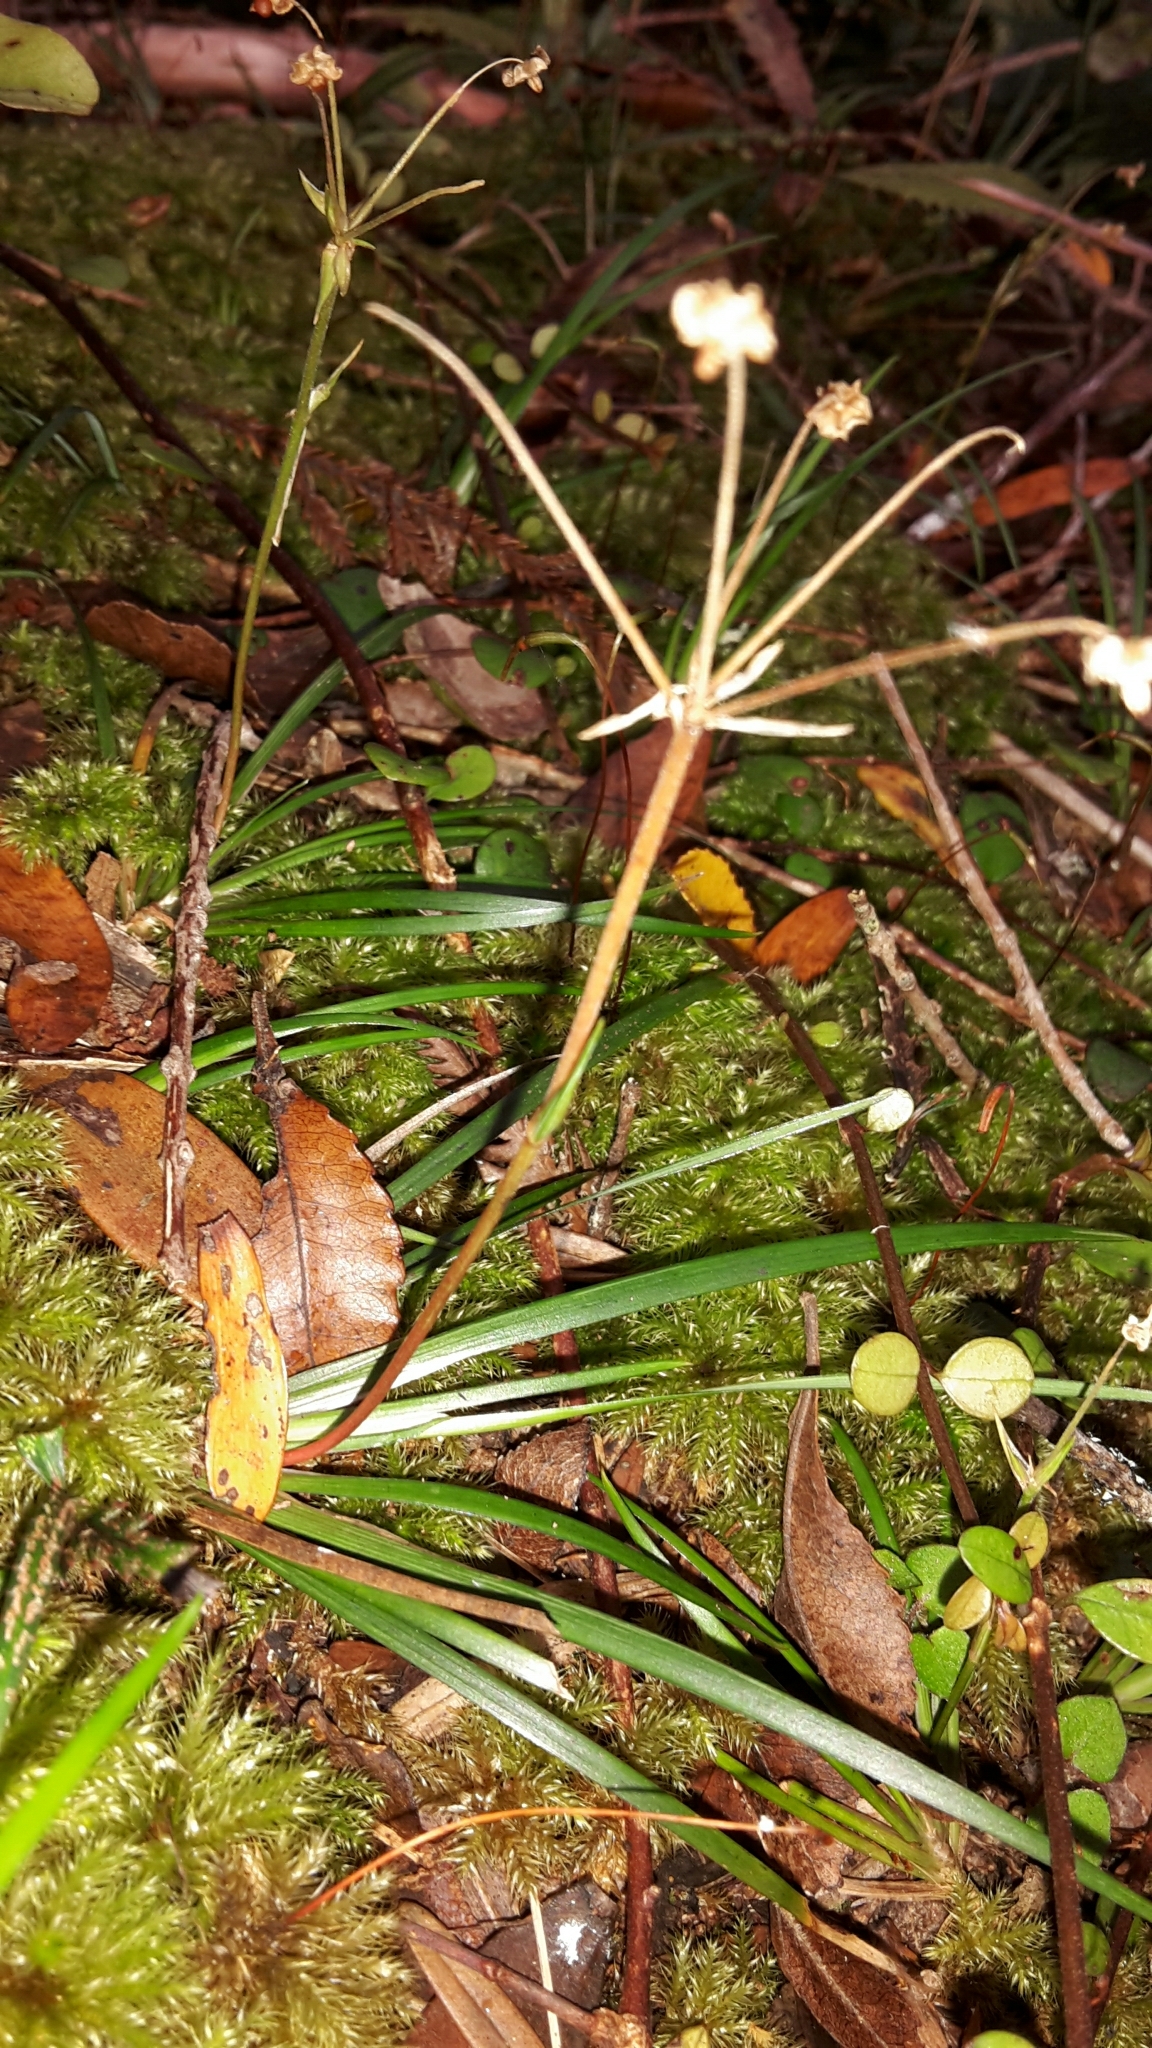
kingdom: Plantae
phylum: Tracheophyta
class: Liliopsida
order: Asparagales
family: Iridaceae
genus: Libertia
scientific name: Libertia micrantha
